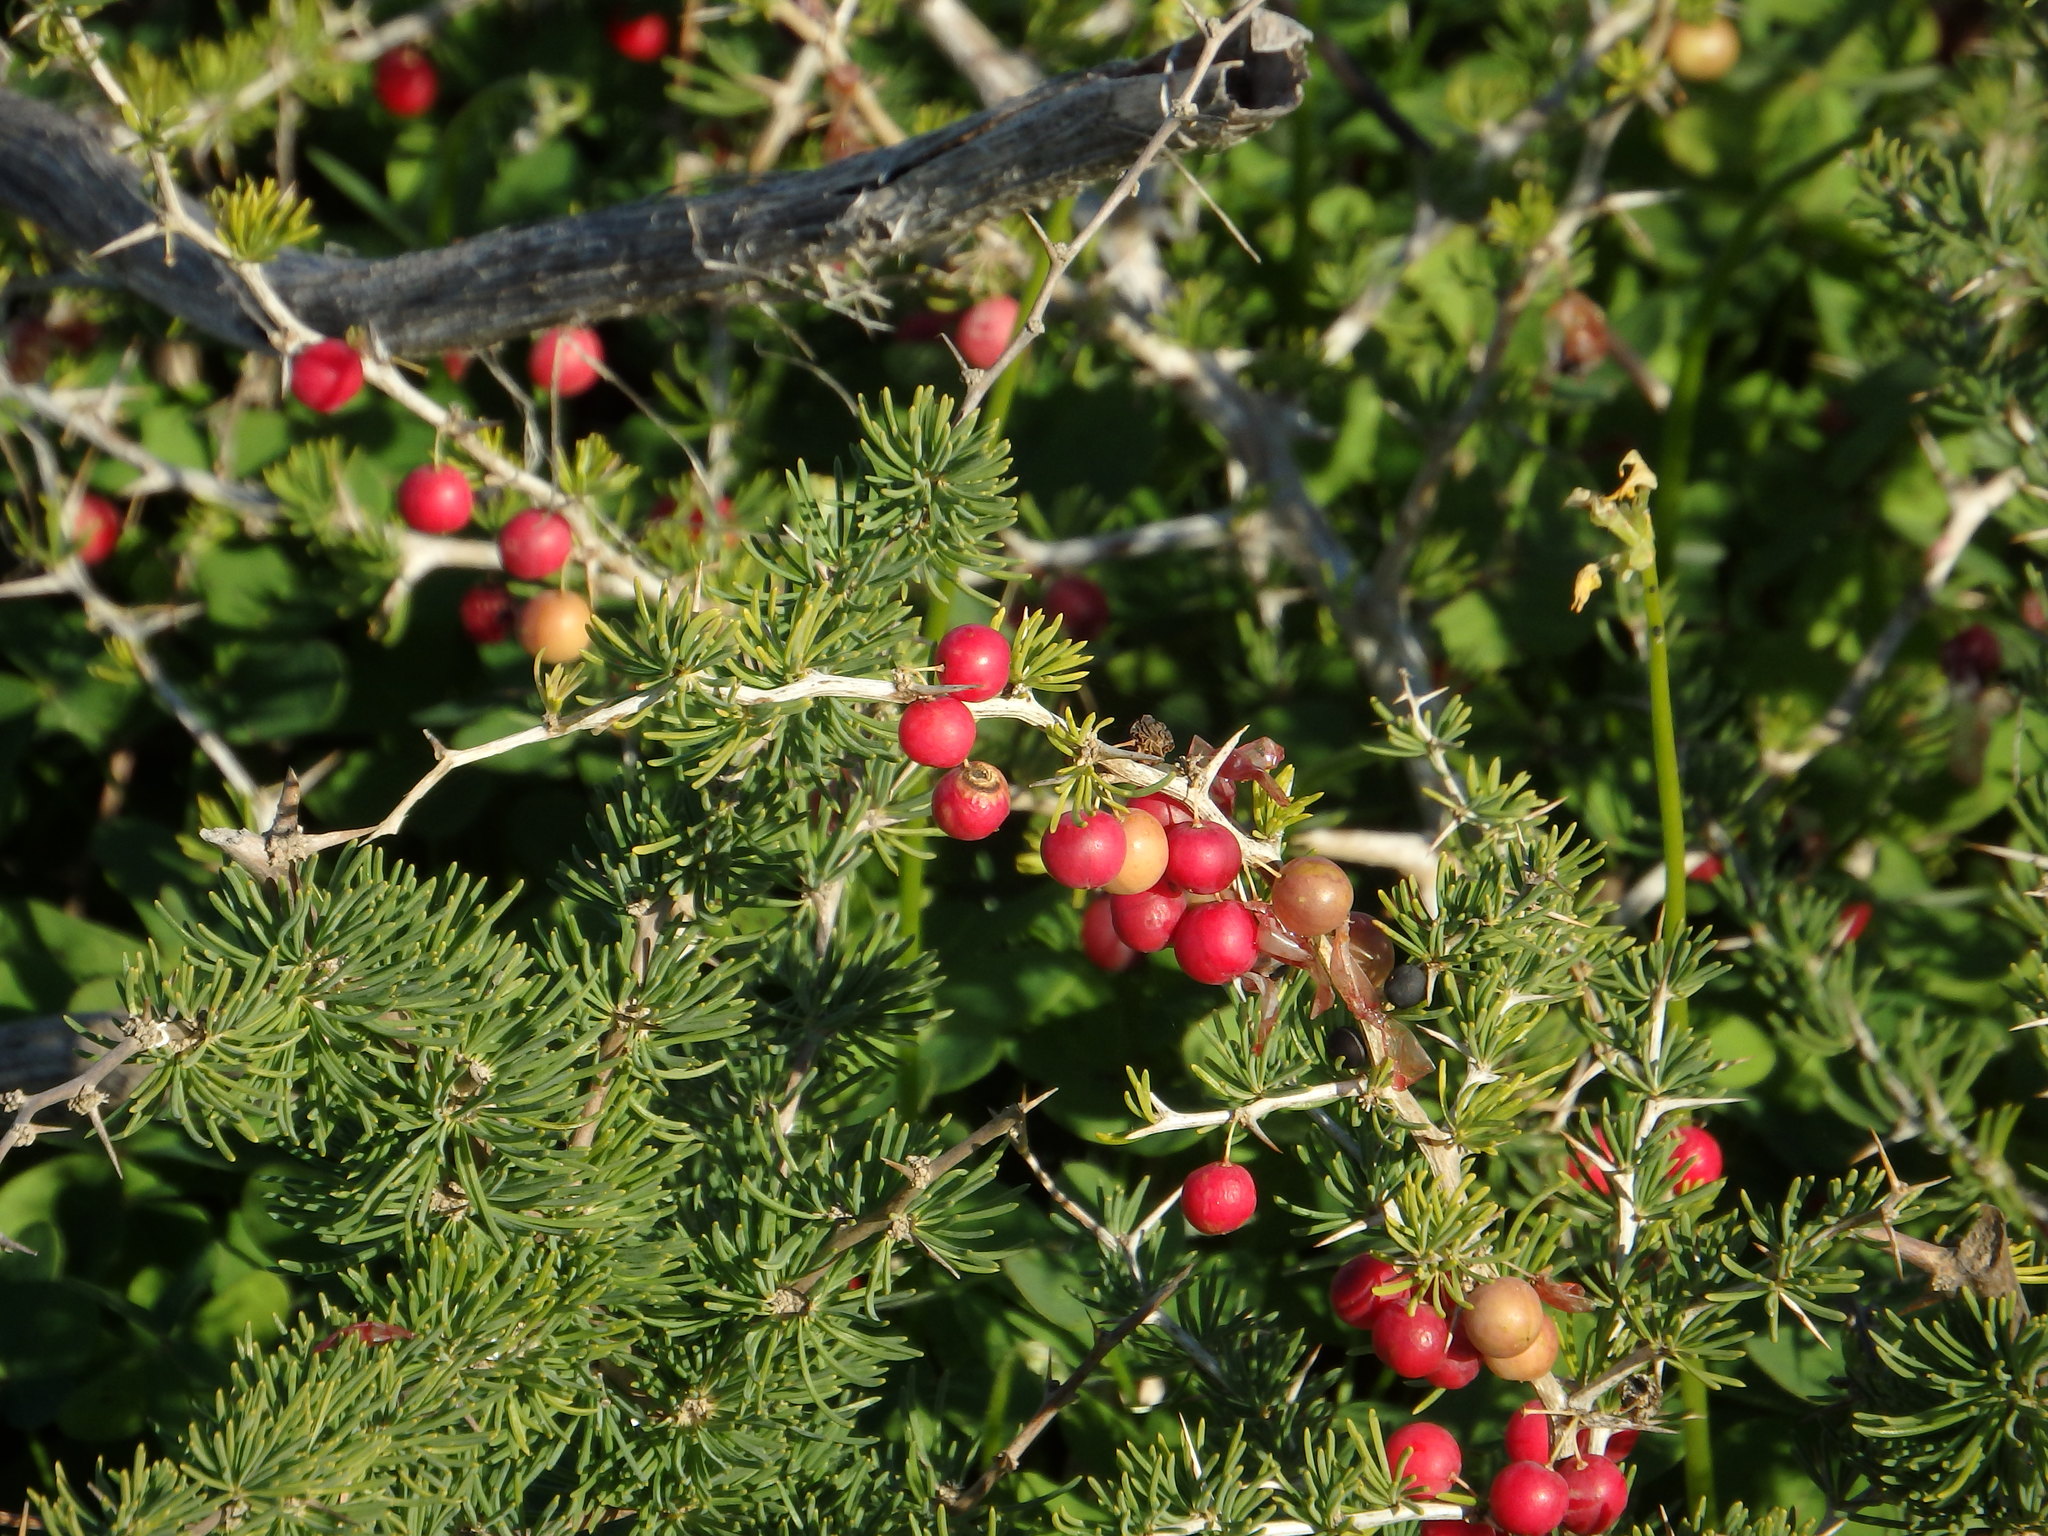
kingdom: Plantae
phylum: Tracheophyta
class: Liliopsida
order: Asparagales
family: Asparagaceae
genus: Asparagus
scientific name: Asparagus albus
